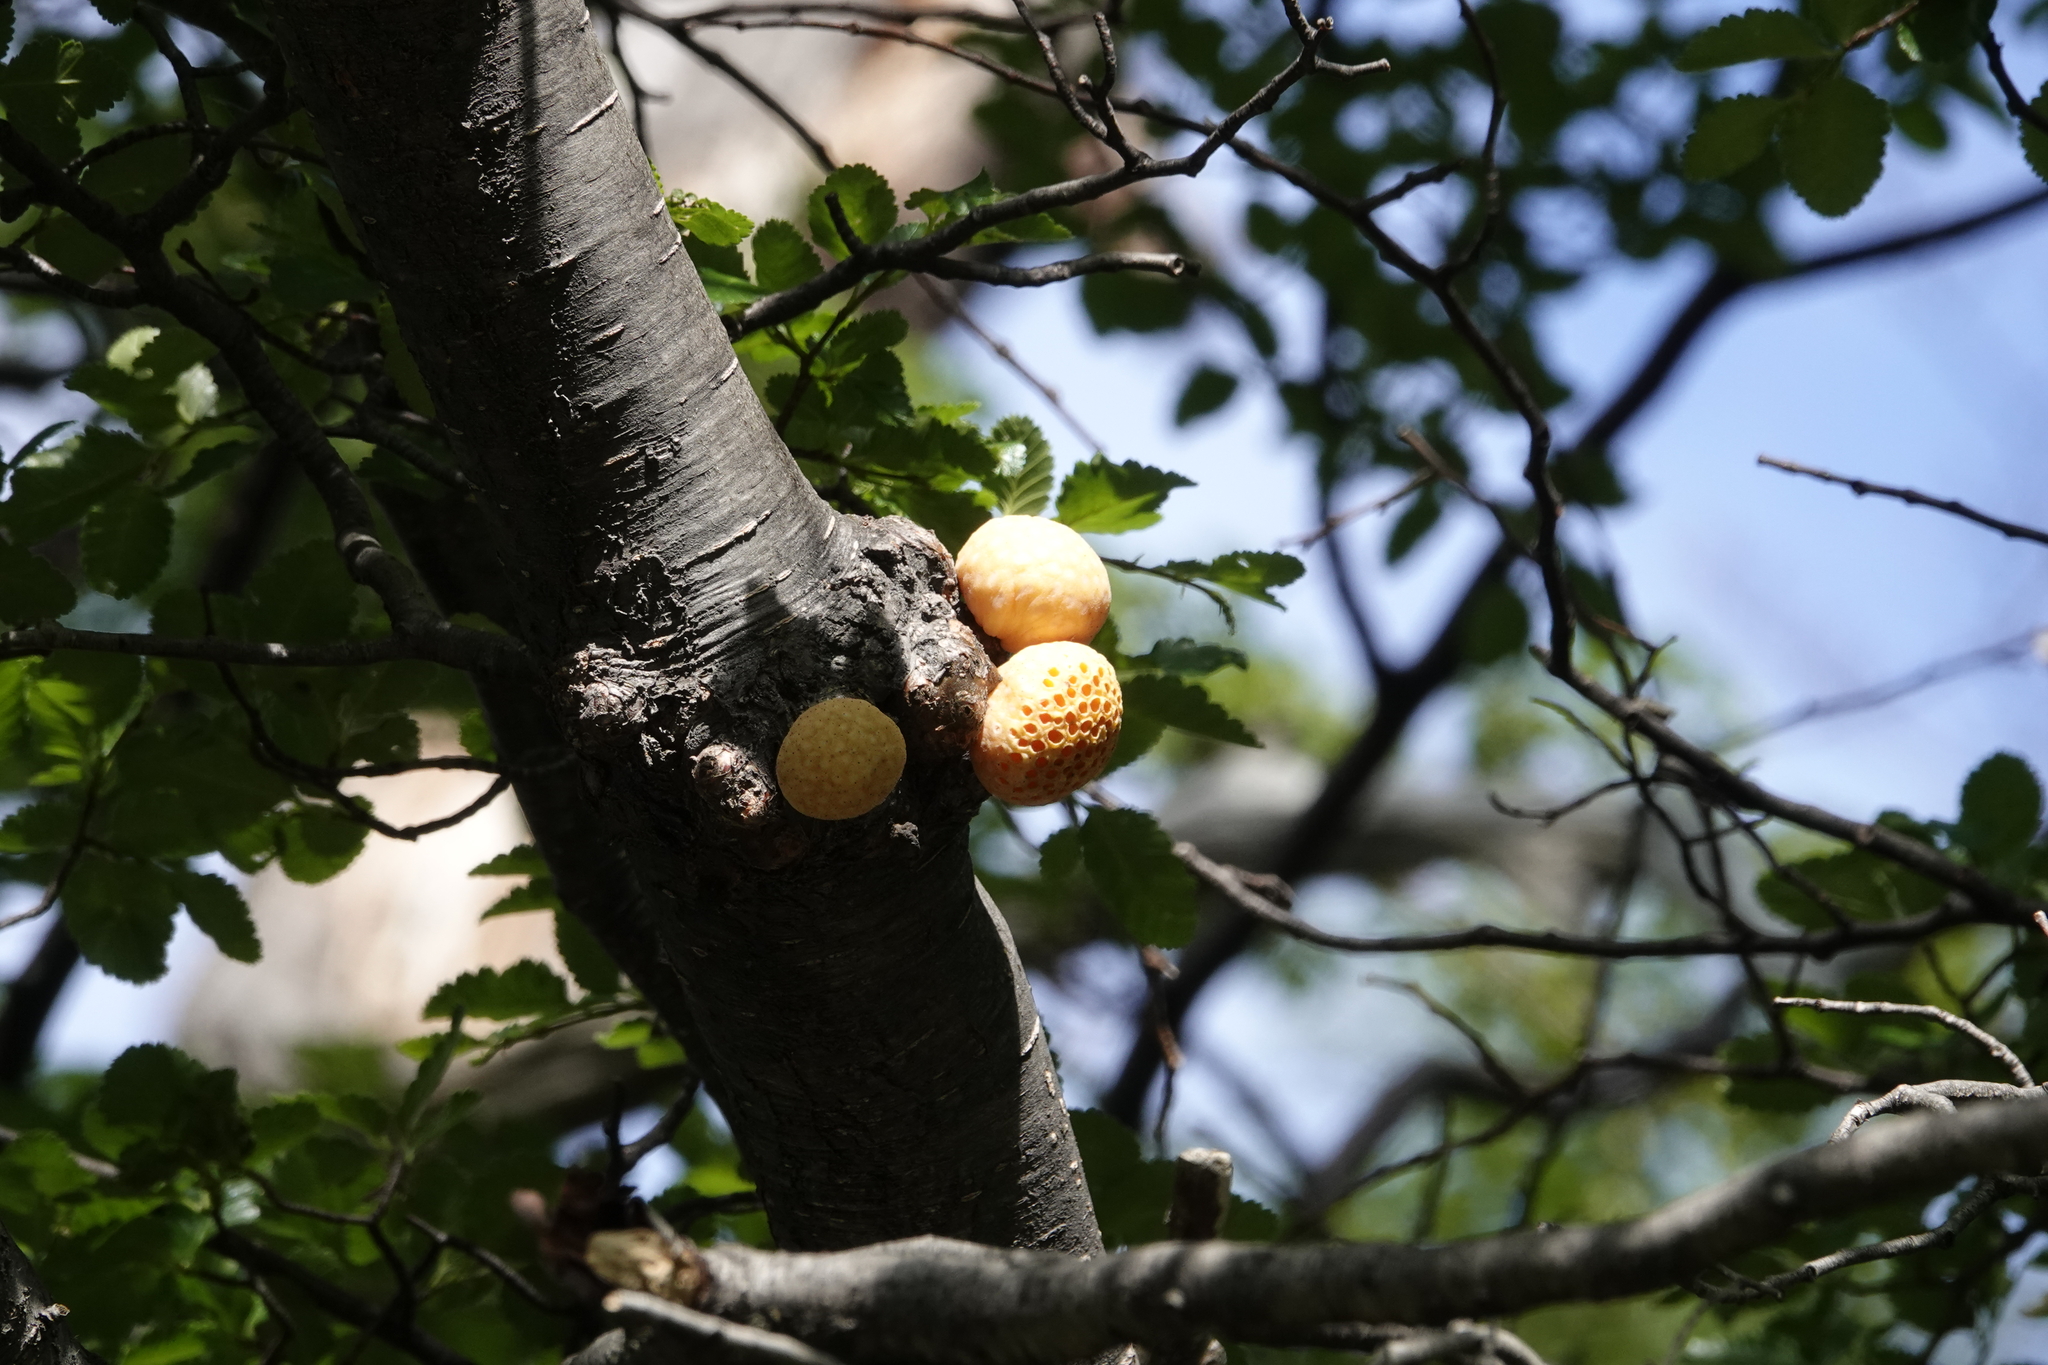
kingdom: Fungi
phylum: Ascomycota
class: Leotiomycetes
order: Cyttariales
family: Cyttariaceae
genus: Cyttaria
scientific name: Cyttaria hariotii
